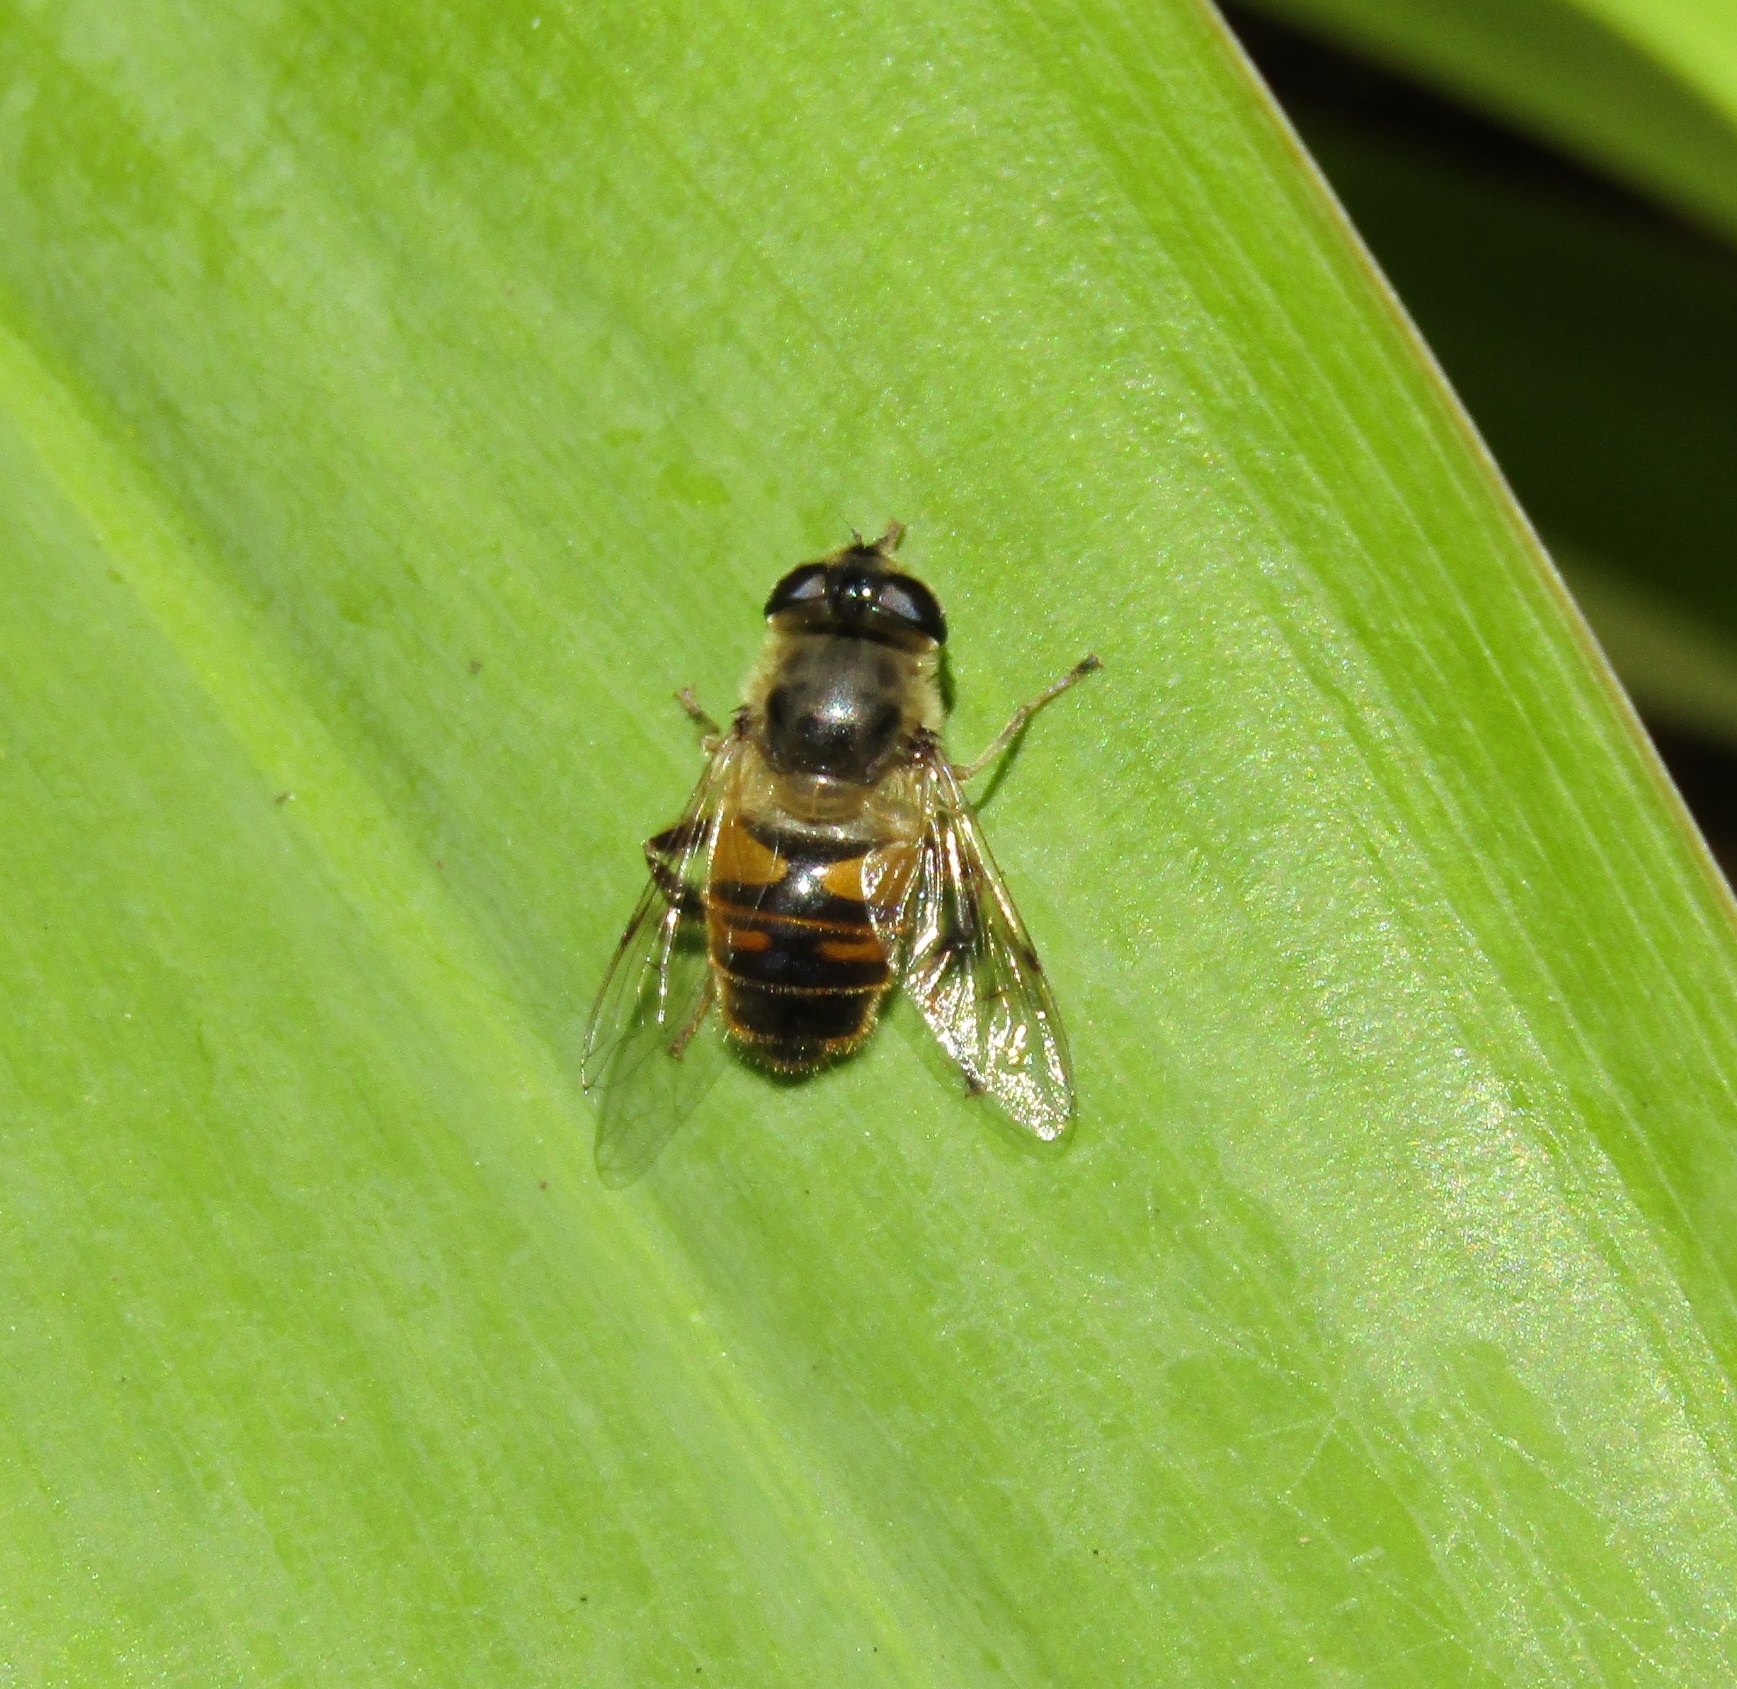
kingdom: Animalia
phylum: Arthropoda
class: Insecta
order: Diptera
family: Syrphidae
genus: Eristalis
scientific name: Eristalis tenax
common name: Drone fly
